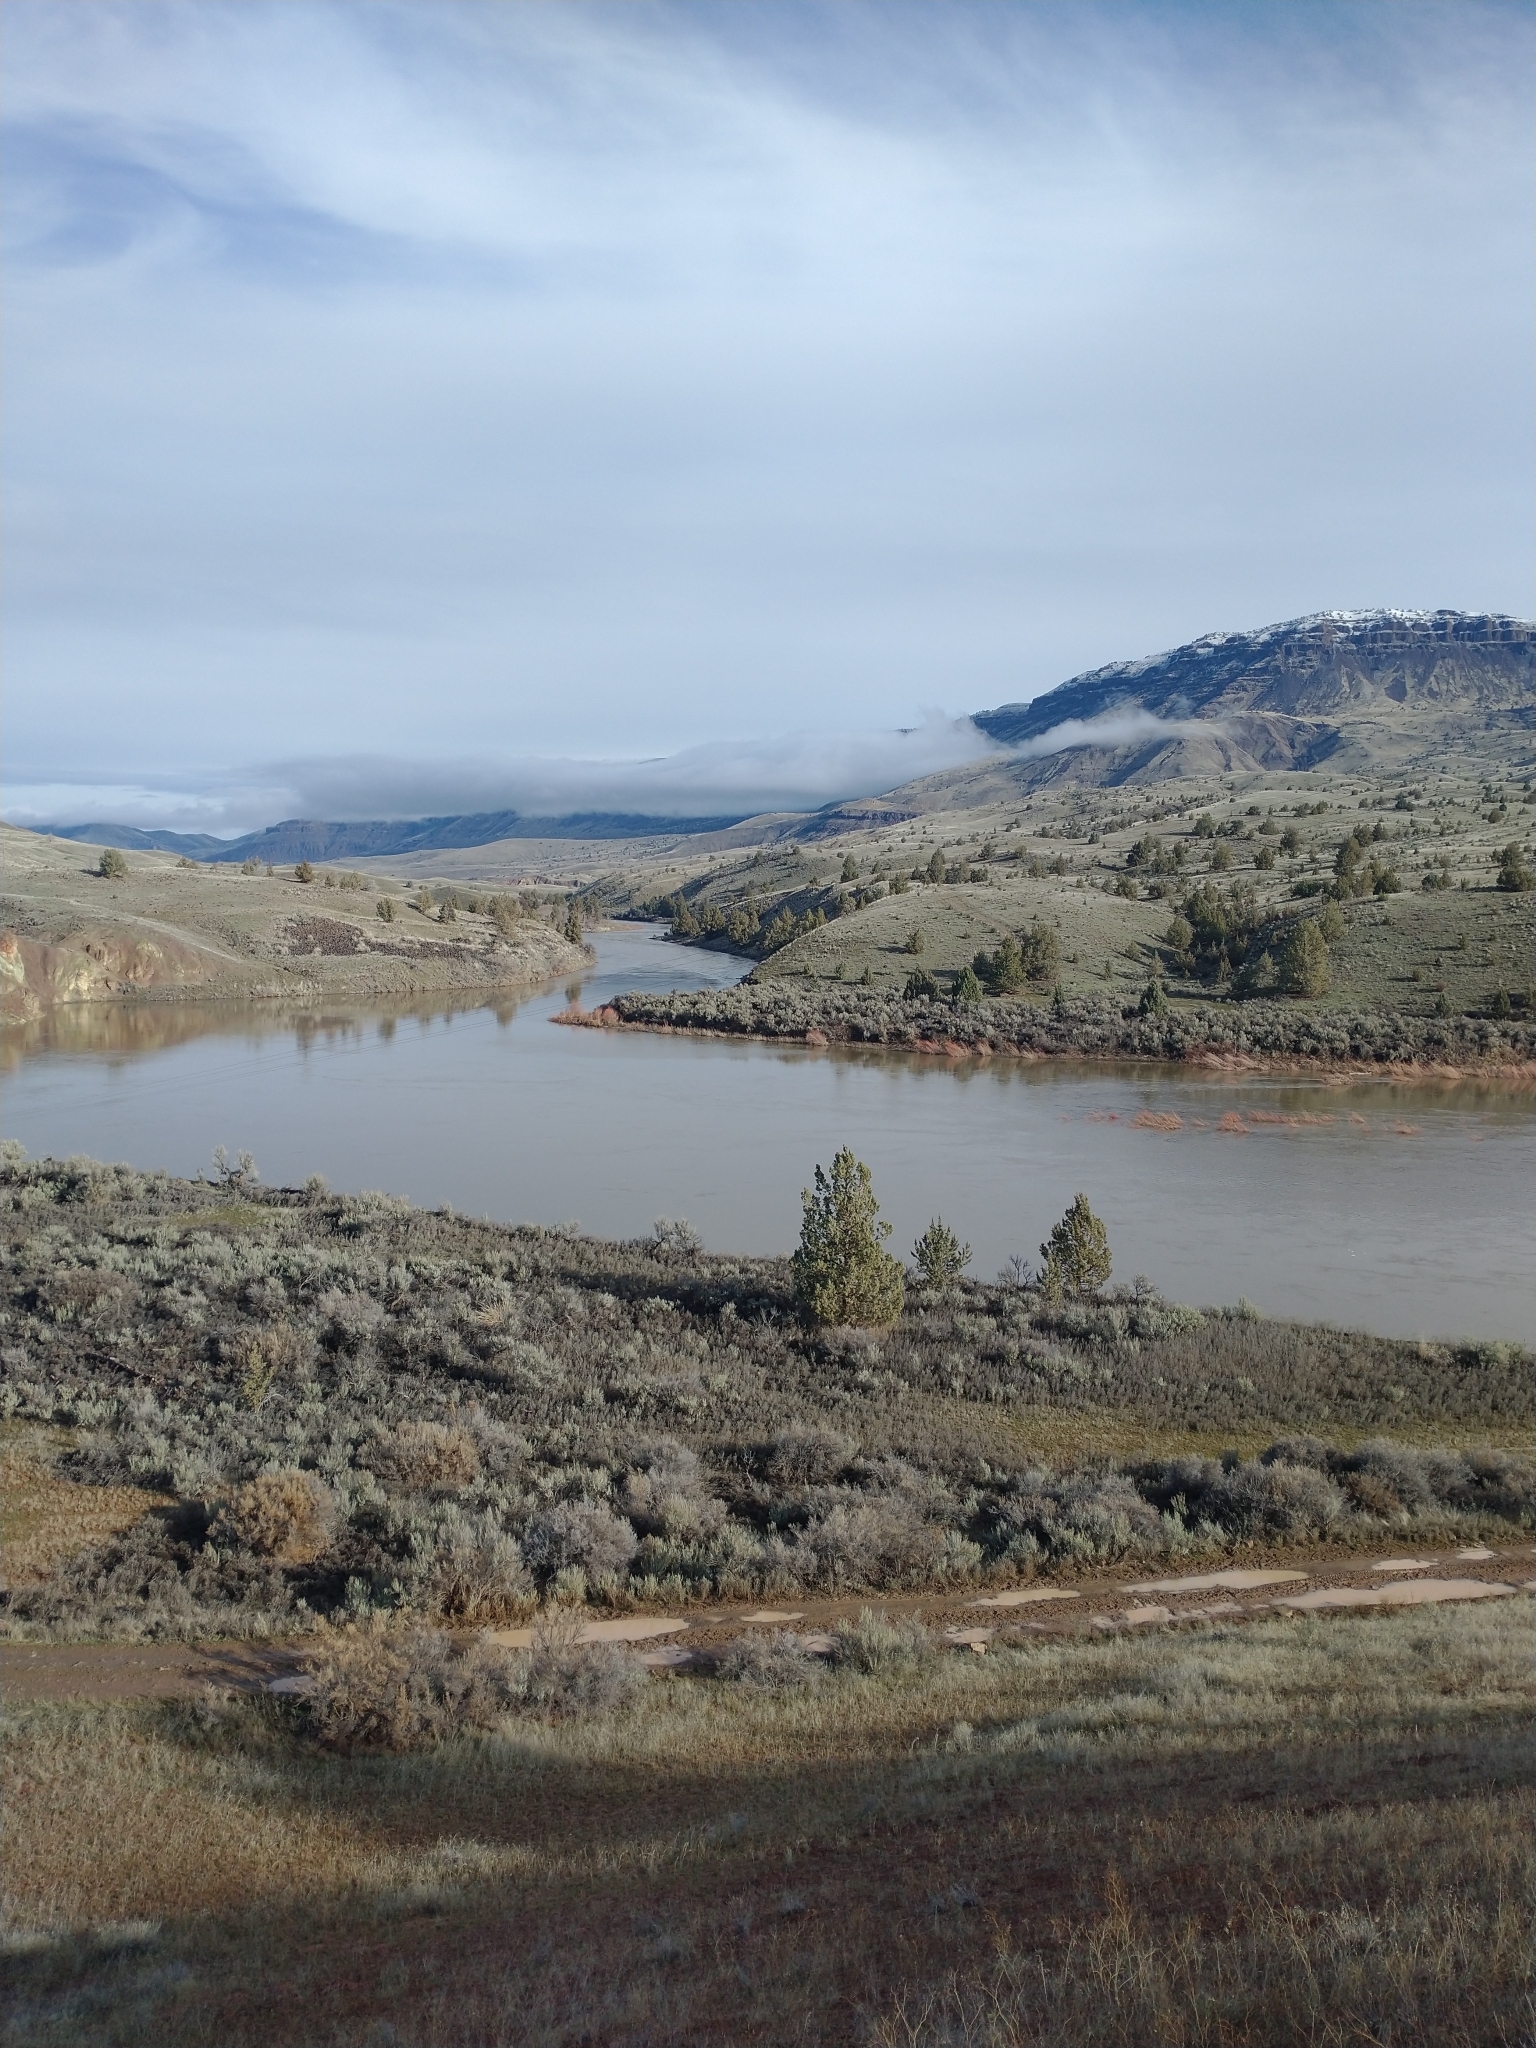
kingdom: Plantae
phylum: Tracheophyta
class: Pinopsida
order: Pinales
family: Cupressaceae
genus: Juniperus
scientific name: Juniperus occidentalis
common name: Western juniper
